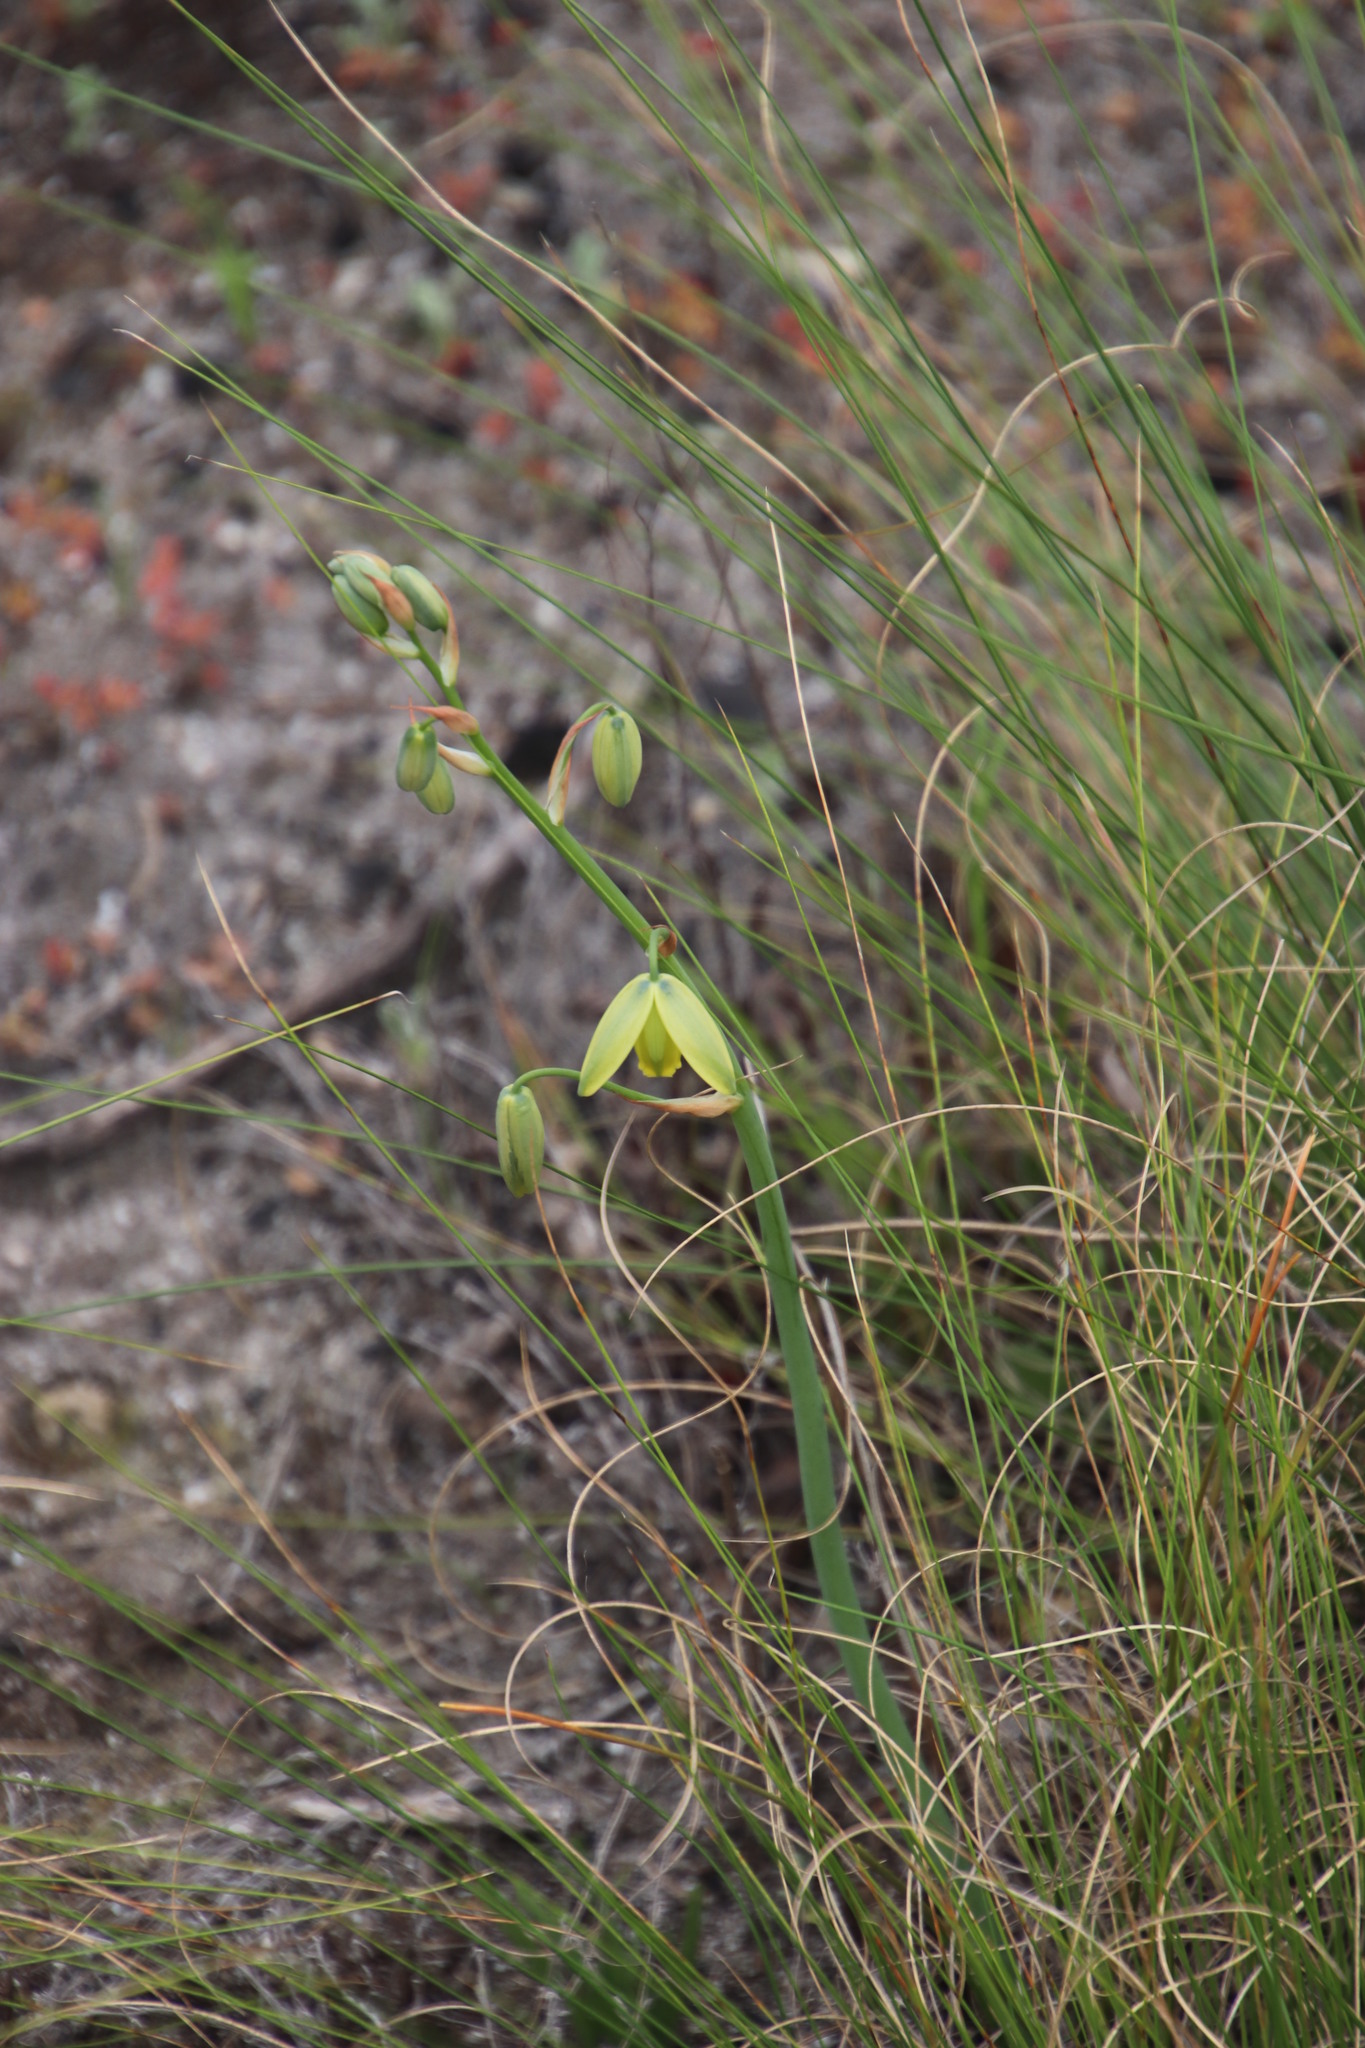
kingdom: Plantae
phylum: Tracheophyta
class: Liliopsida
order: Asparagales
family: Asparagaceae
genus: Albuca
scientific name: Albuca cooperi
